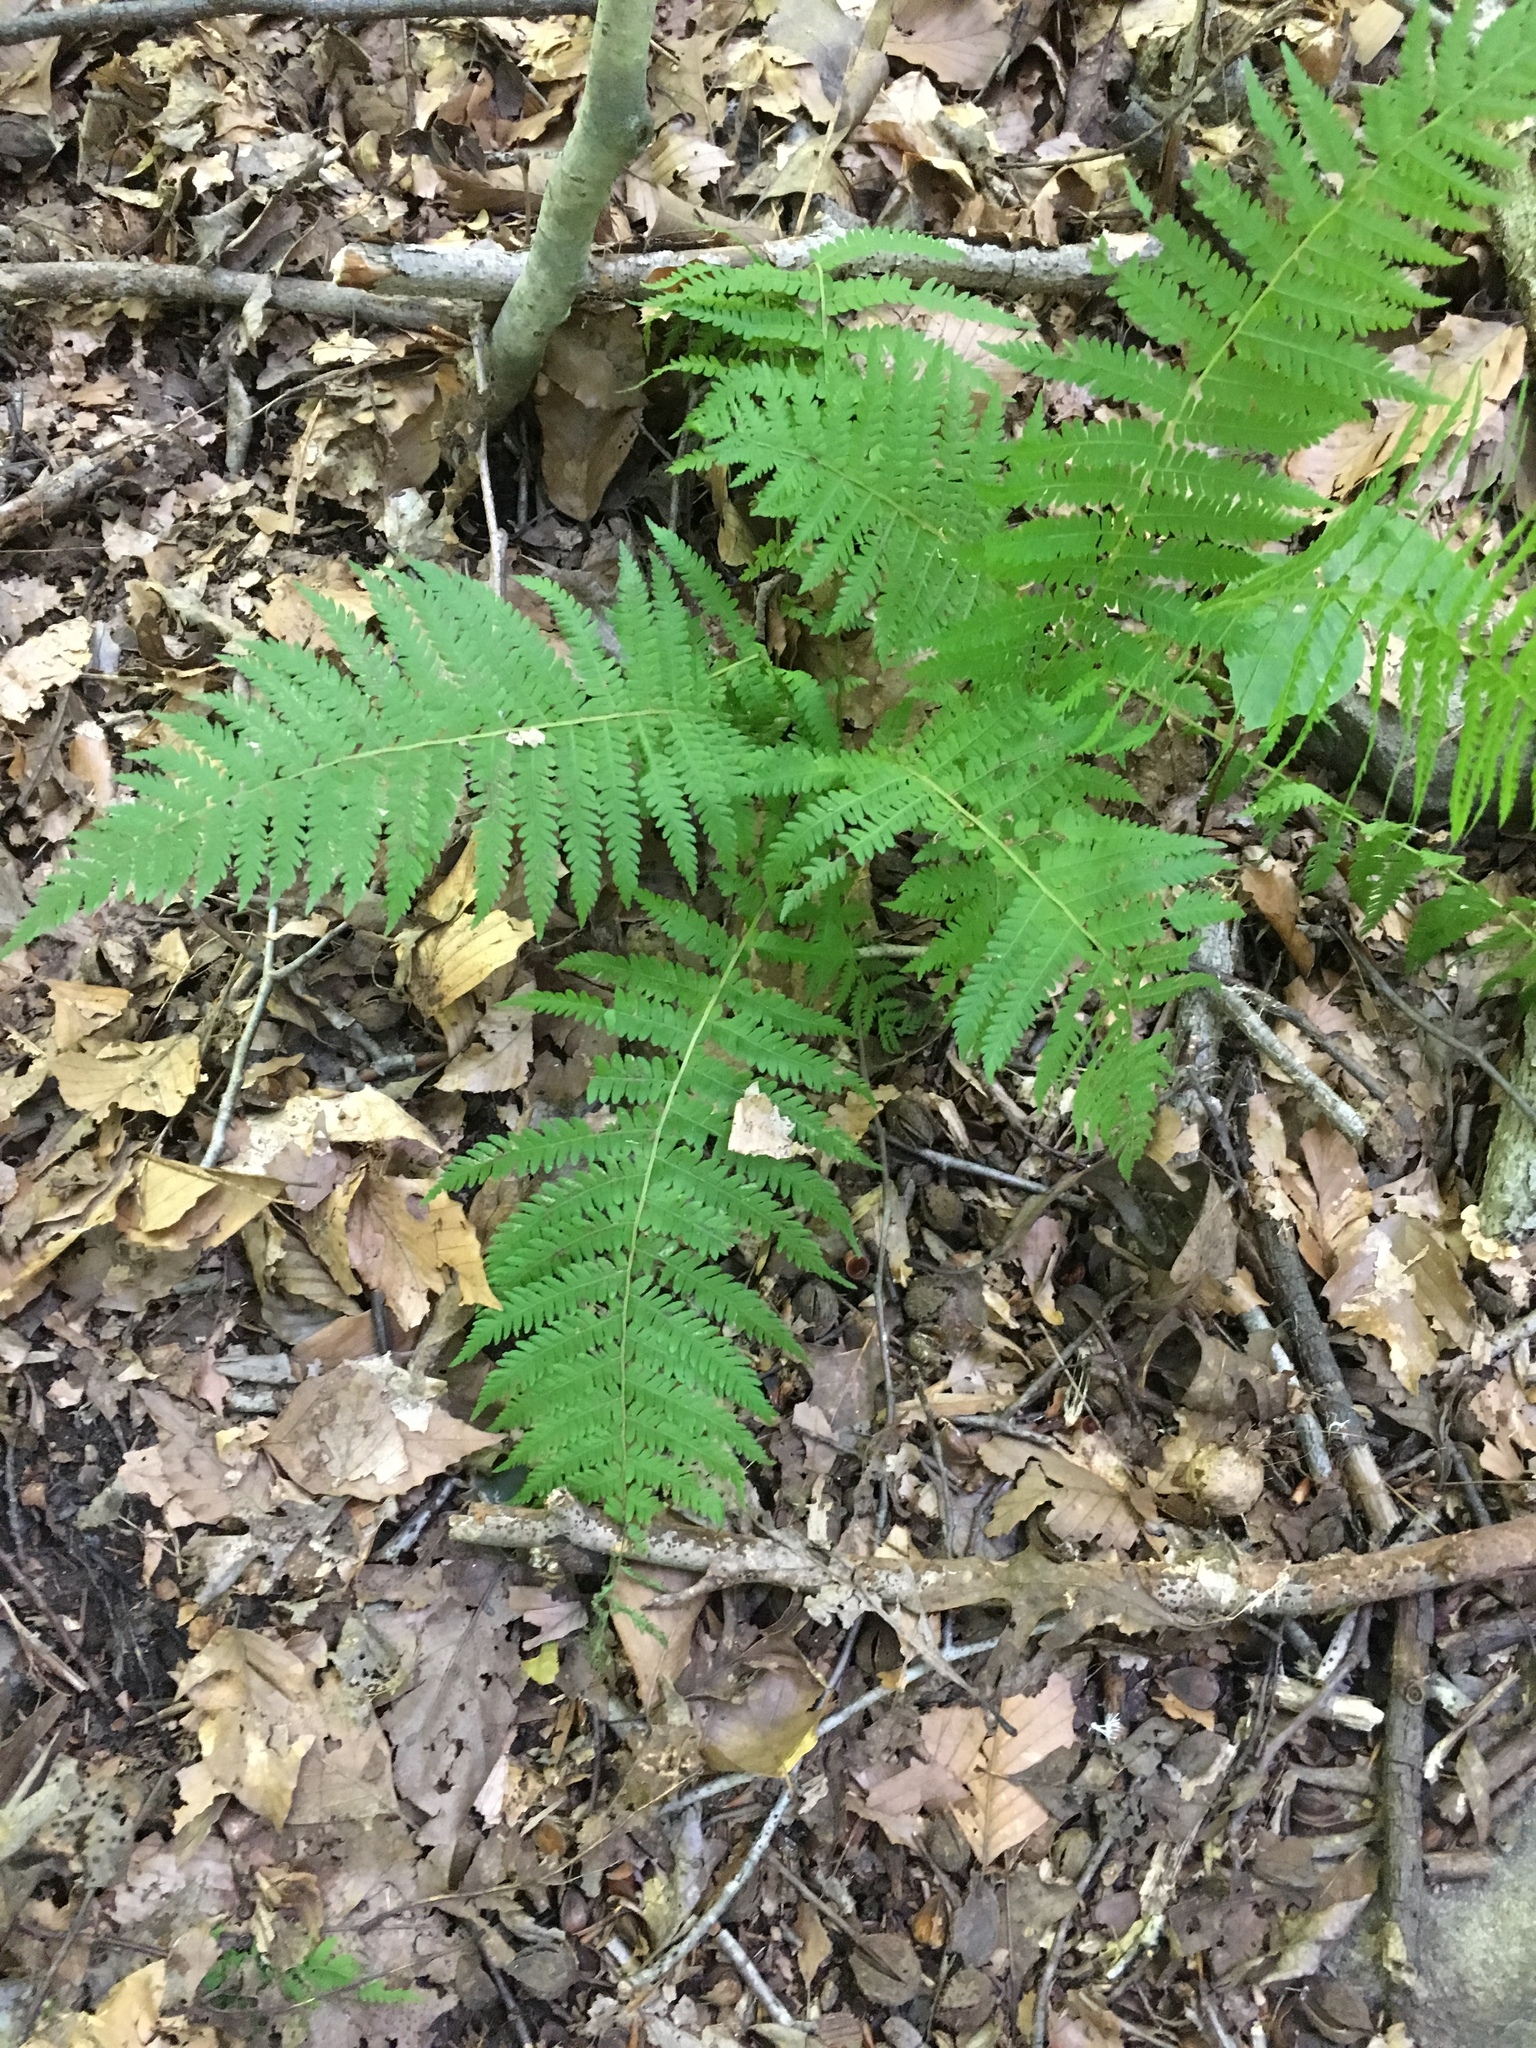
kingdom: Plantae
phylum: Tracheophyta
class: Polypodiopsida
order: Polypodiales
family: Thelypteridaceae
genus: Amauropelta
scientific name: Amauropelta noveboracensis
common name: New york fern
